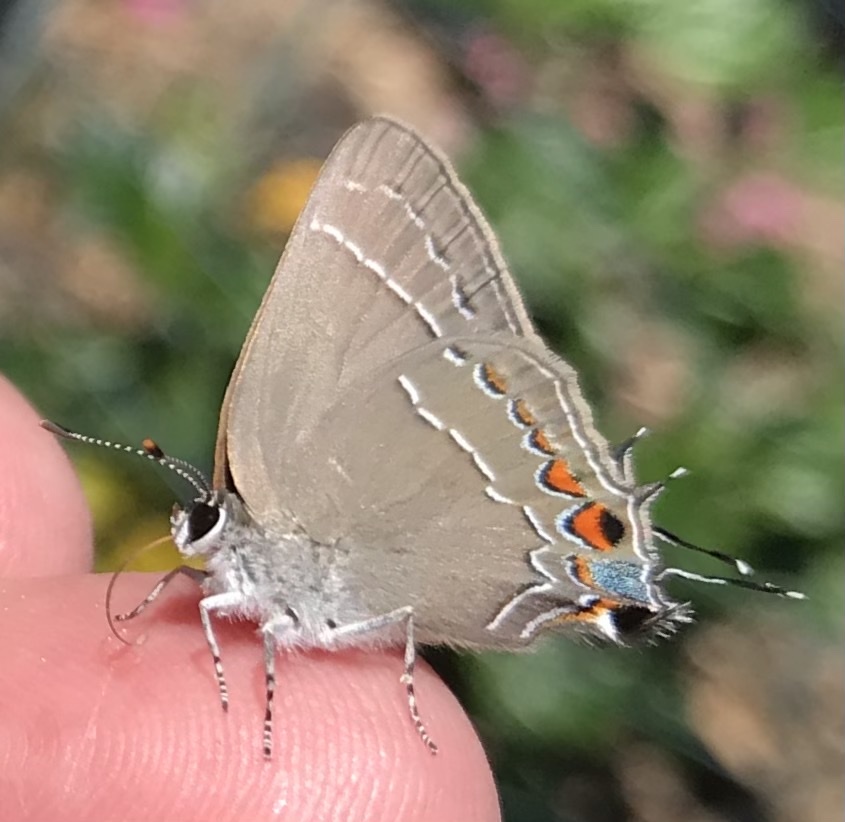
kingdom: Animalia
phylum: Arthropoda
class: Insecta
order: Lepidoptera
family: Lycaenidae
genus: Fixsenia
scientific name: Fixsenia favonius
